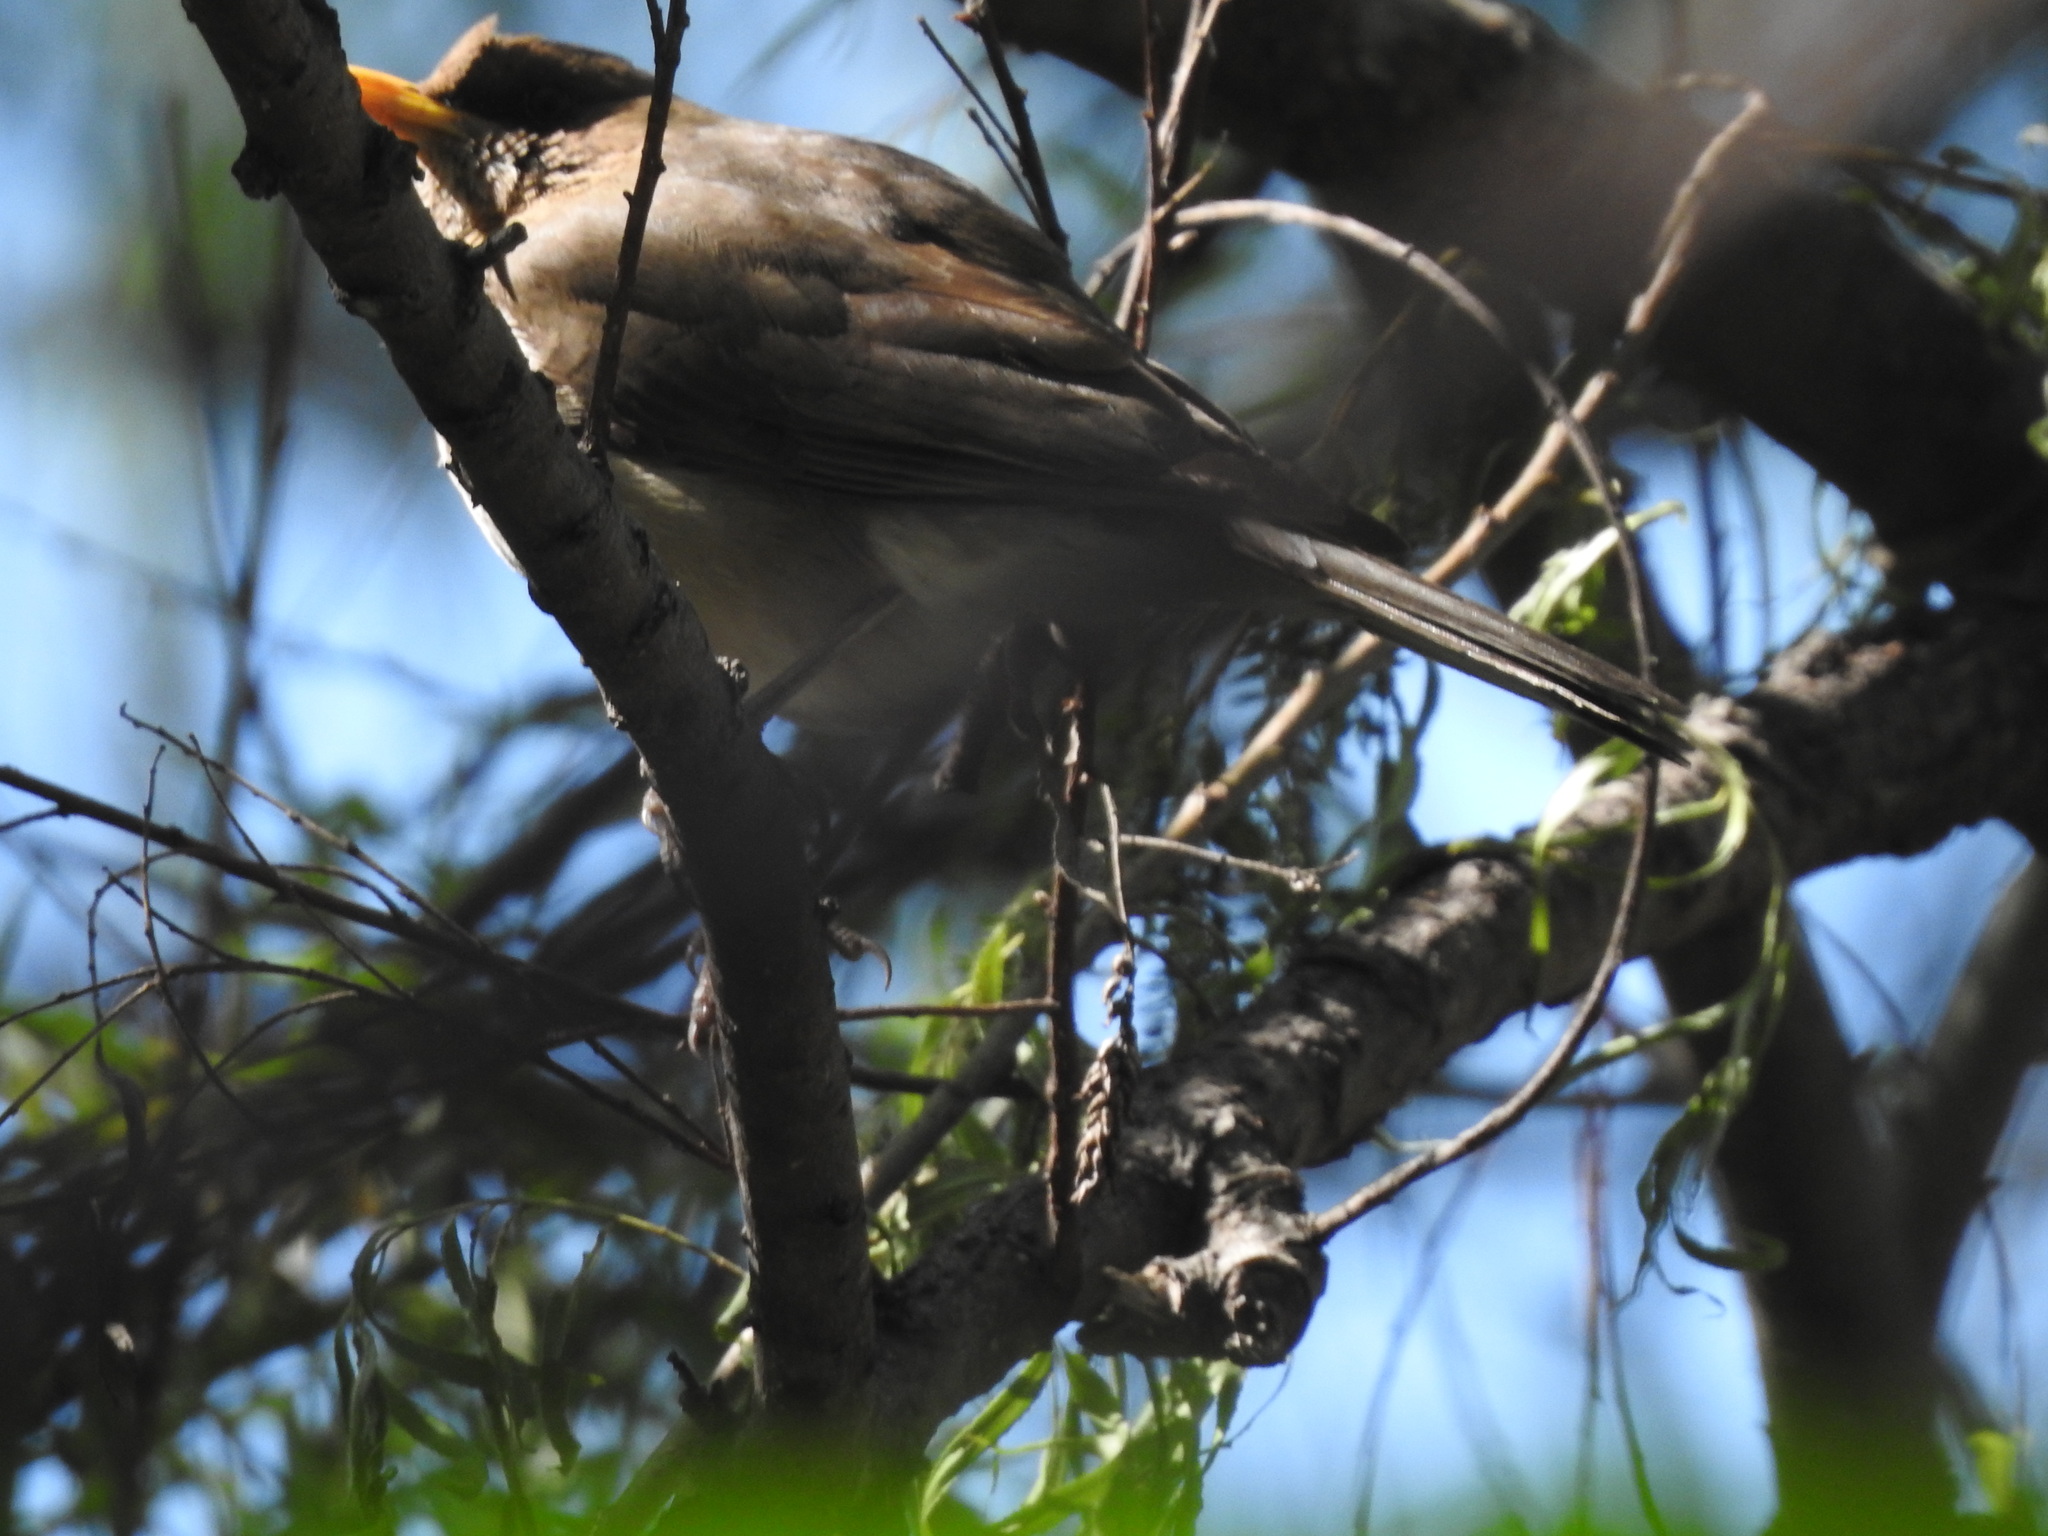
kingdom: Animalia
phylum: Chordata
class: Aves
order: Passeriformes
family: Turdidae
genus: Turdus
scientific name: Turdus amaurochalinus
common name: Creamy-bellied thrush
